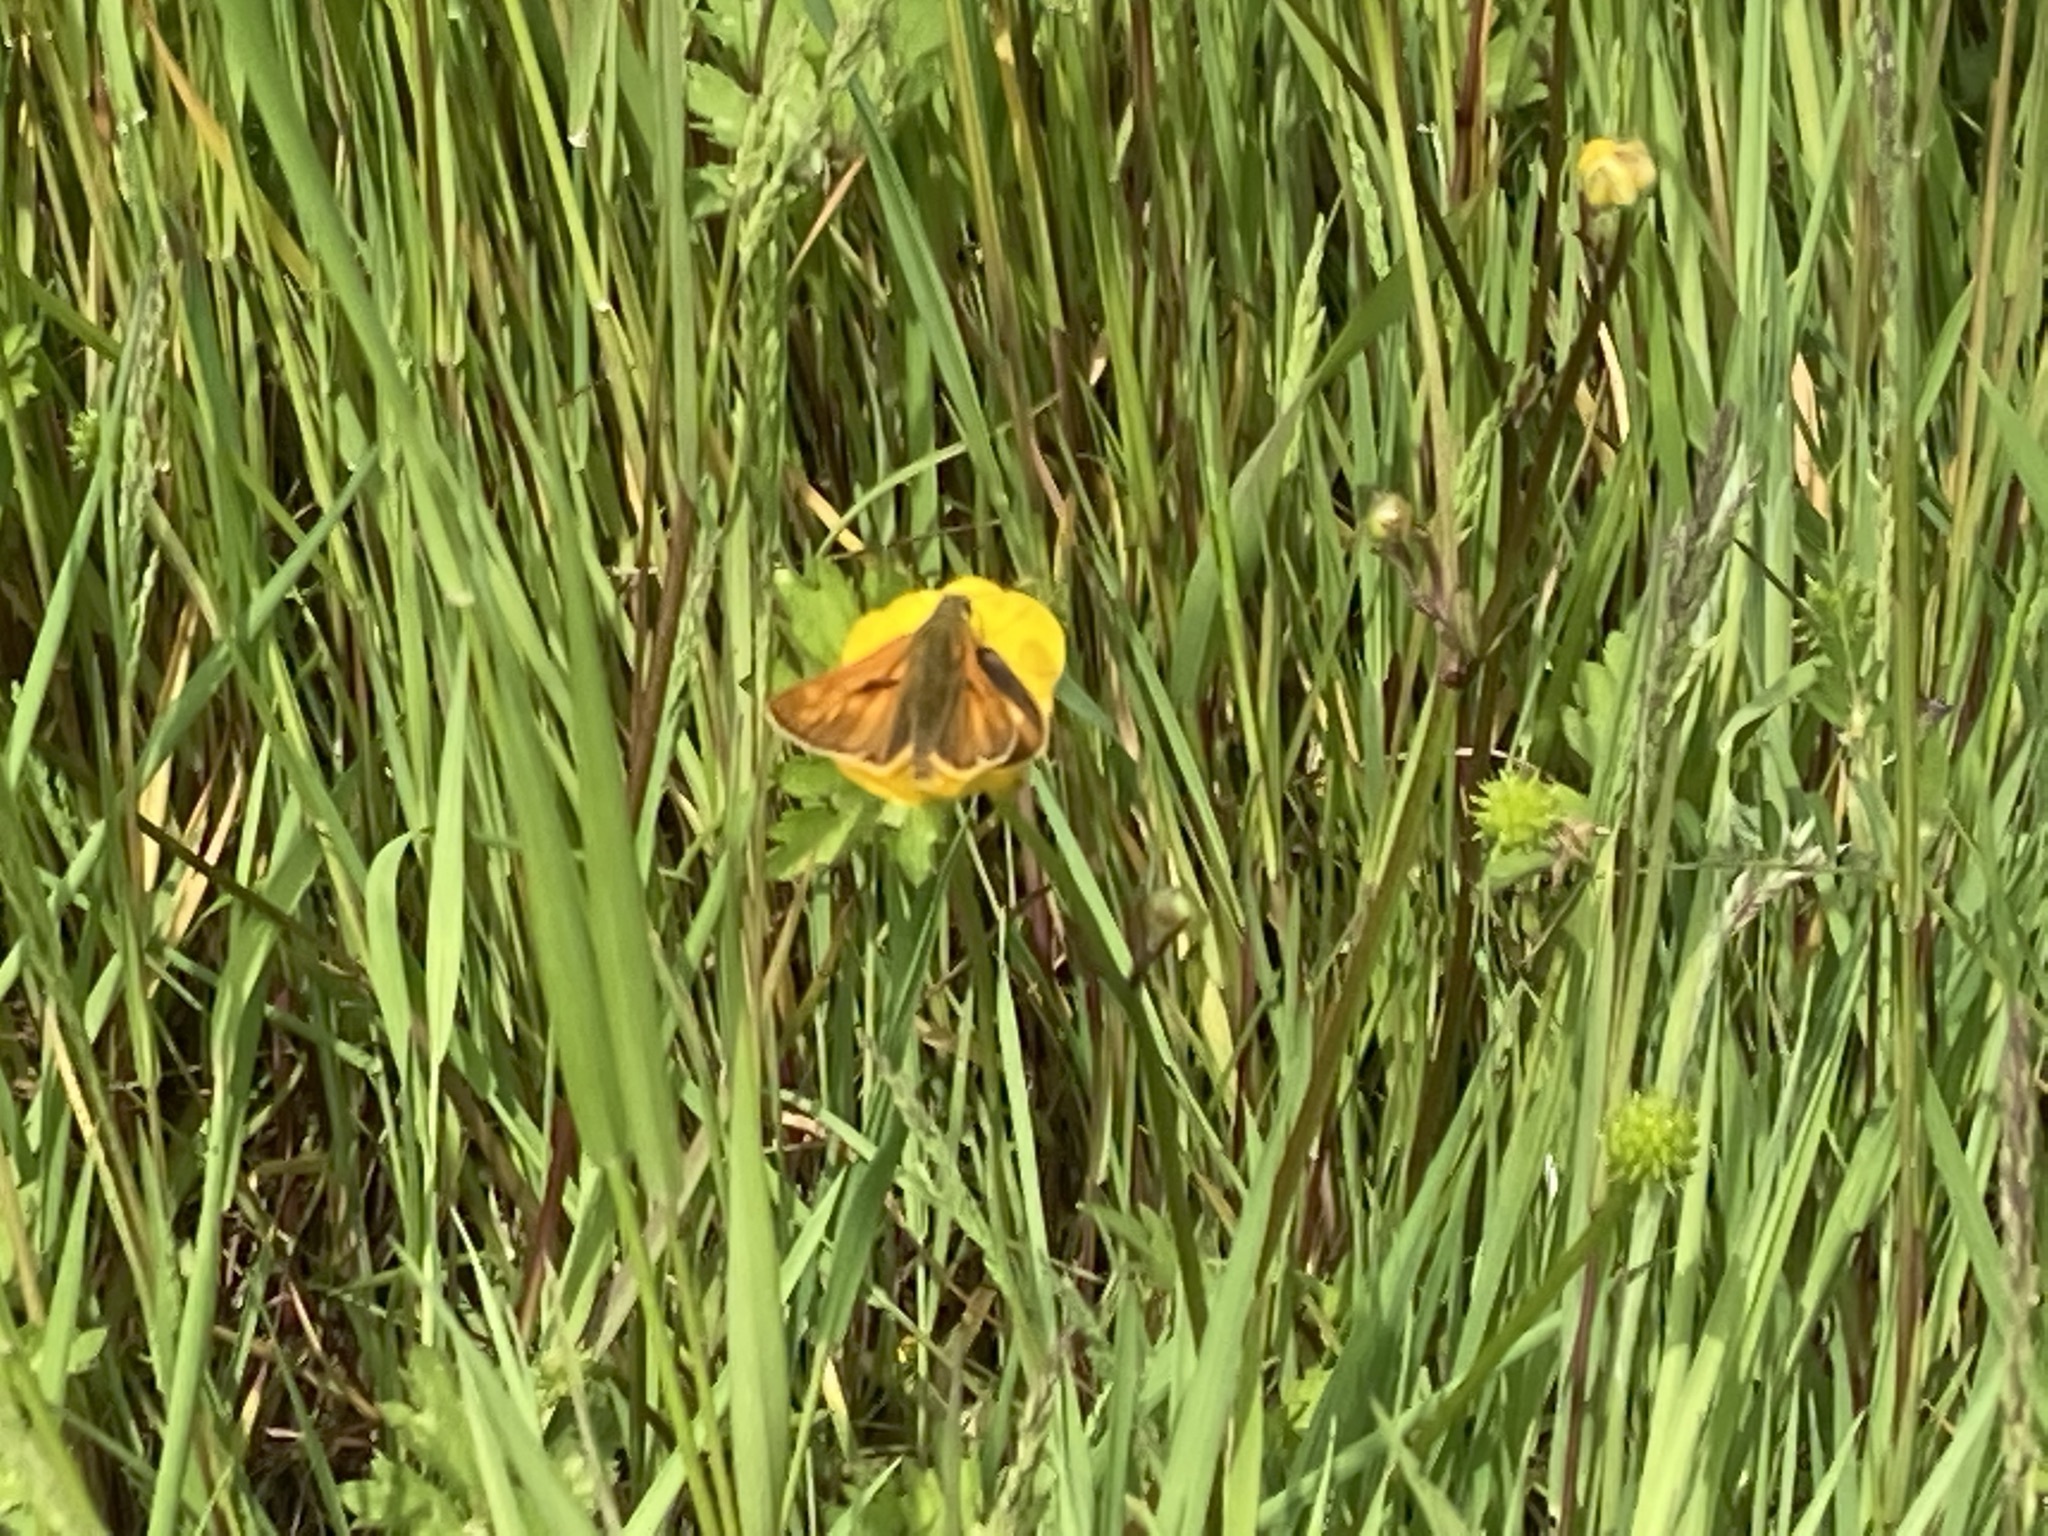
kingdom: Animalia
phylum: Arthropoda
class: Insecta
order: Lepidoptera
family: Hesperiidae
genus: Ochlodes
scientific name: Ochlodes venata
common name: Large skipper
